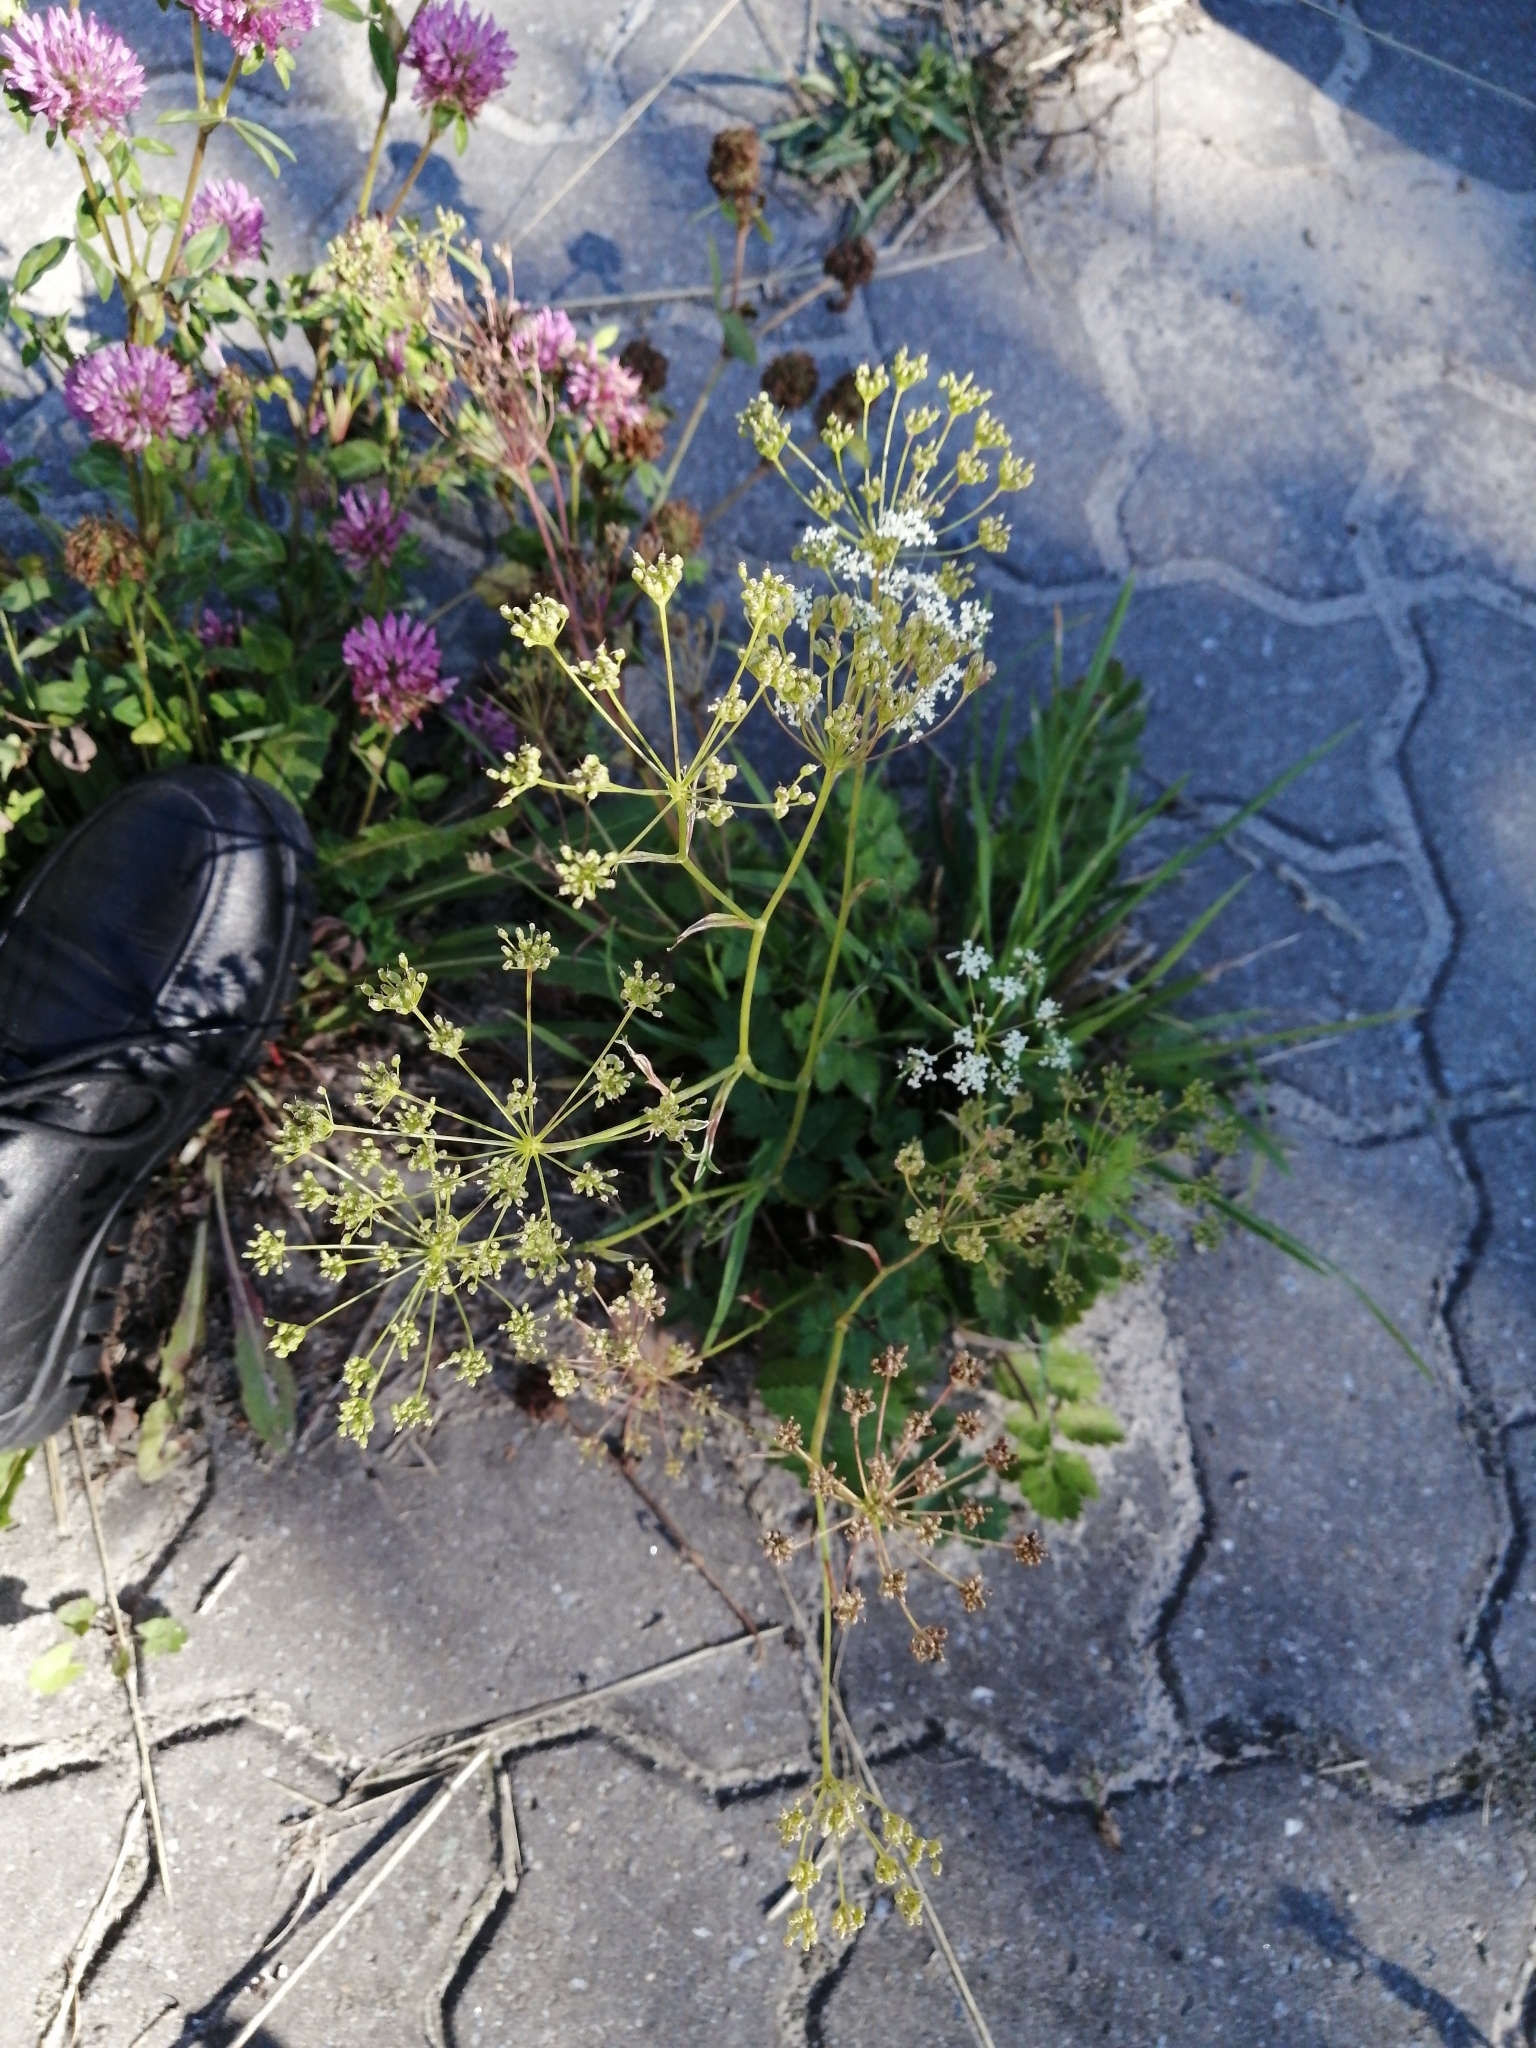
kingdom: Plantae
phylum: Tracheophyta
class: Magnoliopsida
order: Apiales
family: Apiaceae
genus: Pimpinella
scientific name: Pimpinella saxifraga
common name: Burnet-saxifrage
